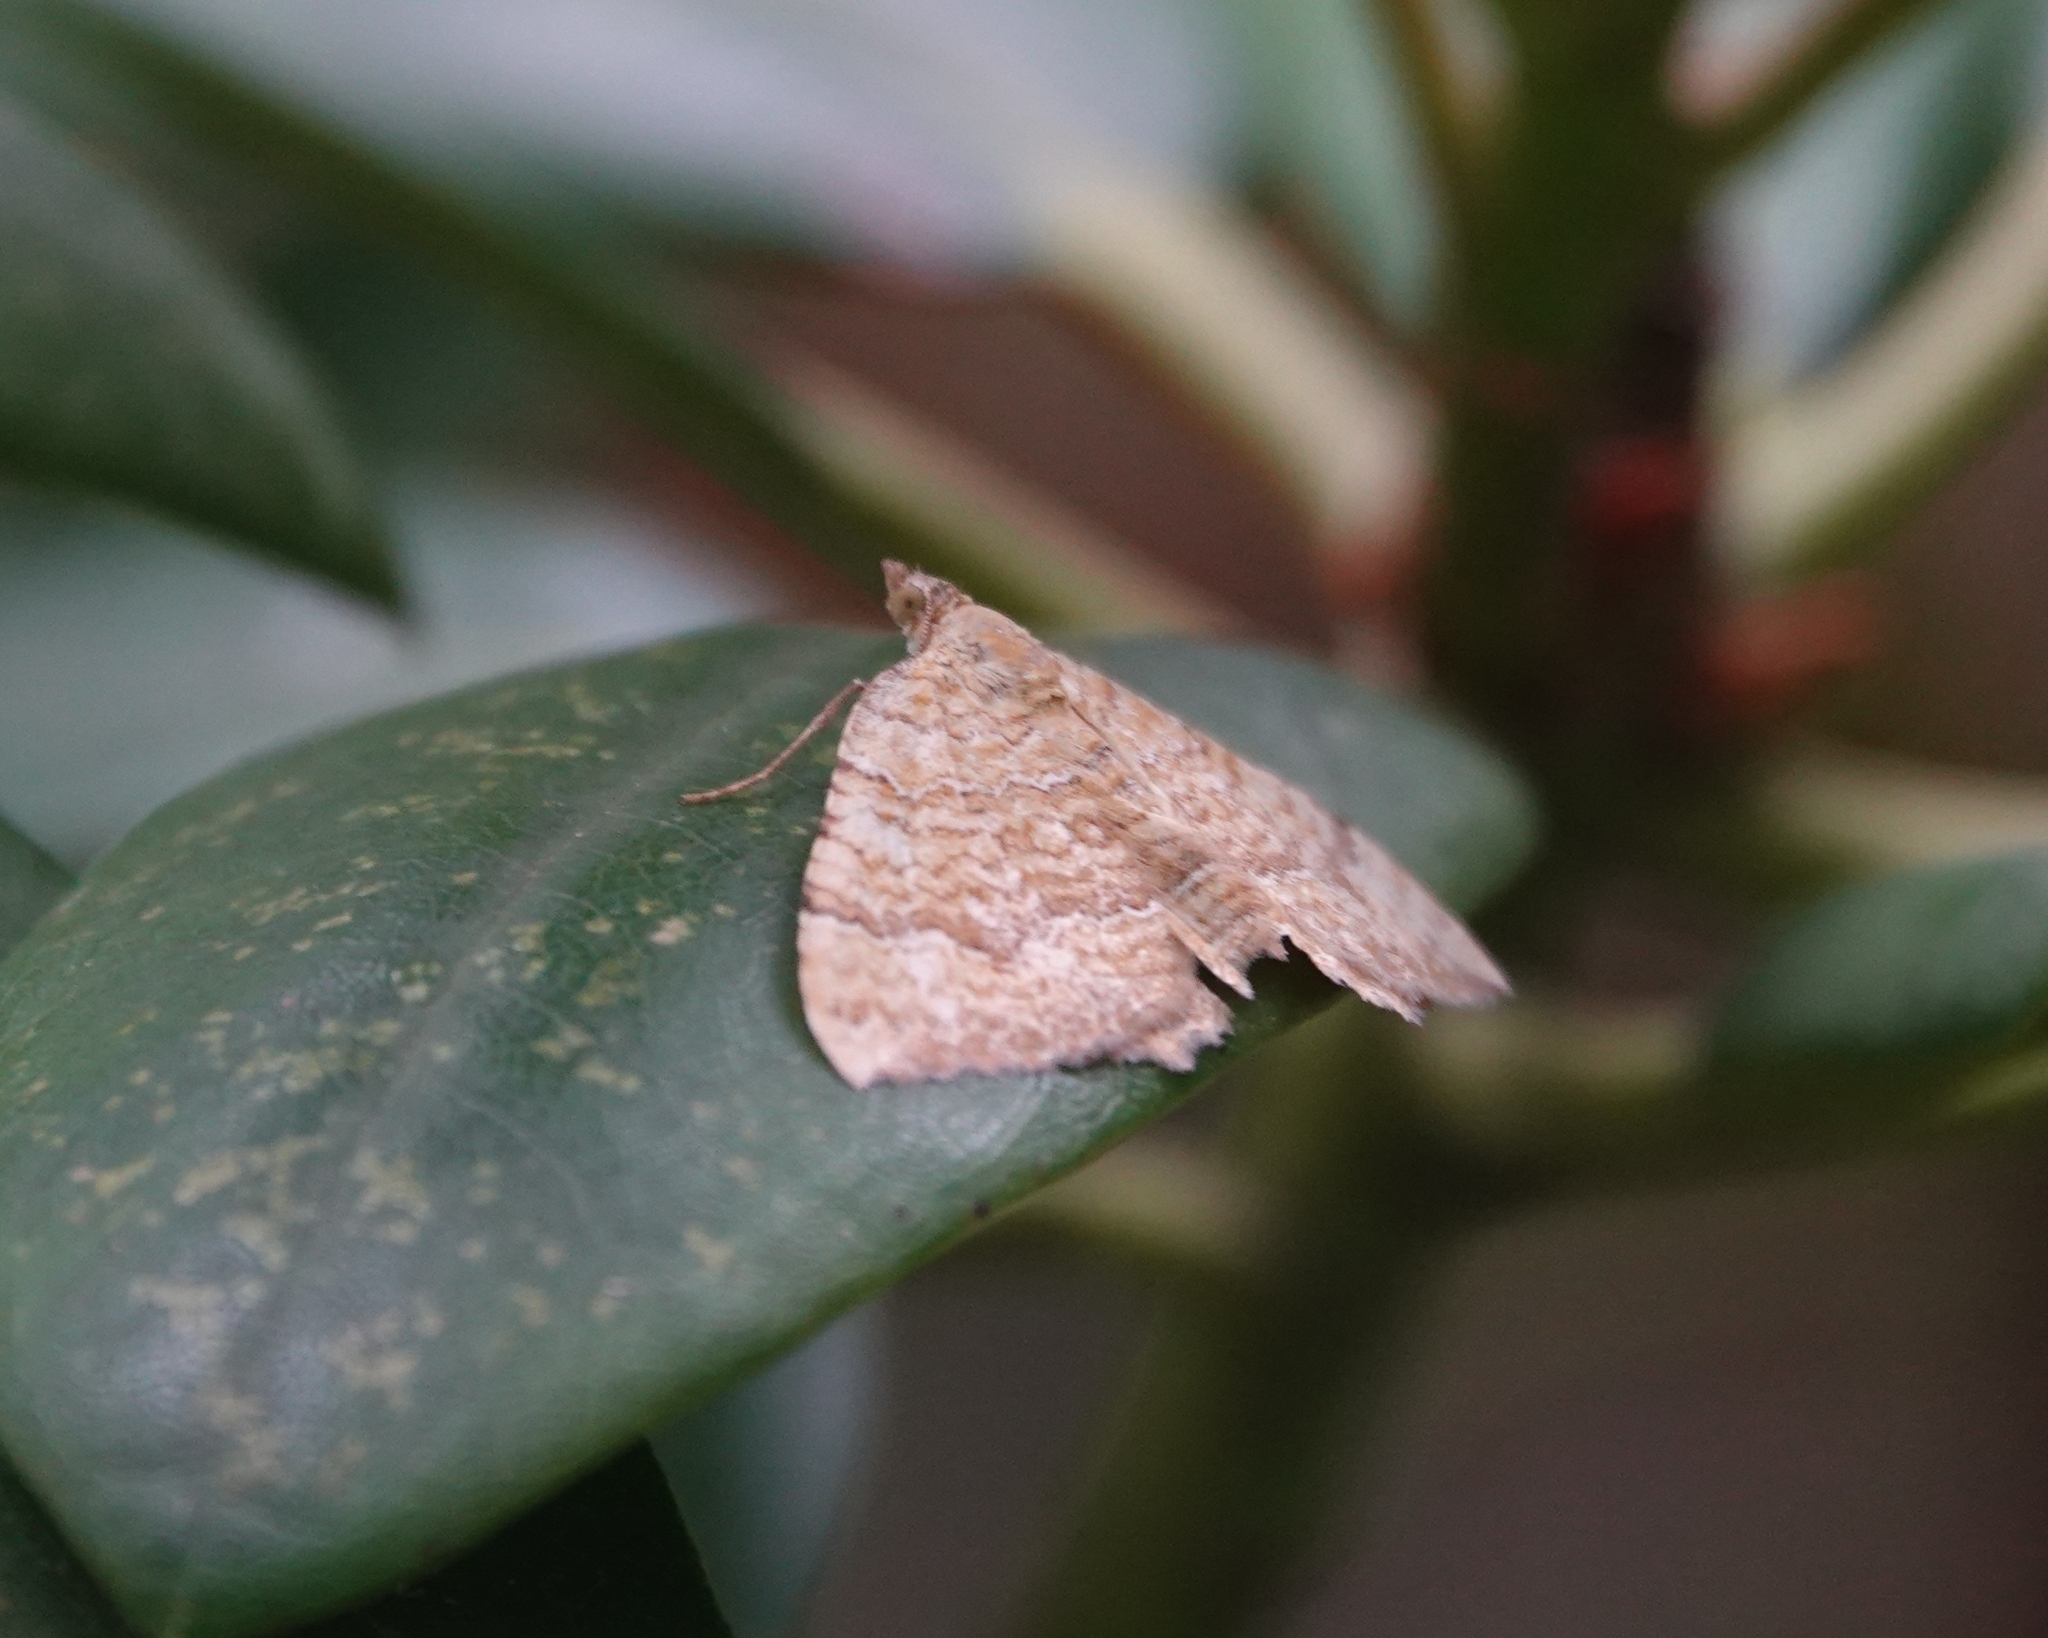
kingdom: Animalia
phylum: Arthropoda
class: Insecta
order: Lepidoptera
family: Geometridae
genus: Camptogramma
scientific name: Camptogramma bilineata
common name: Yellow shell
